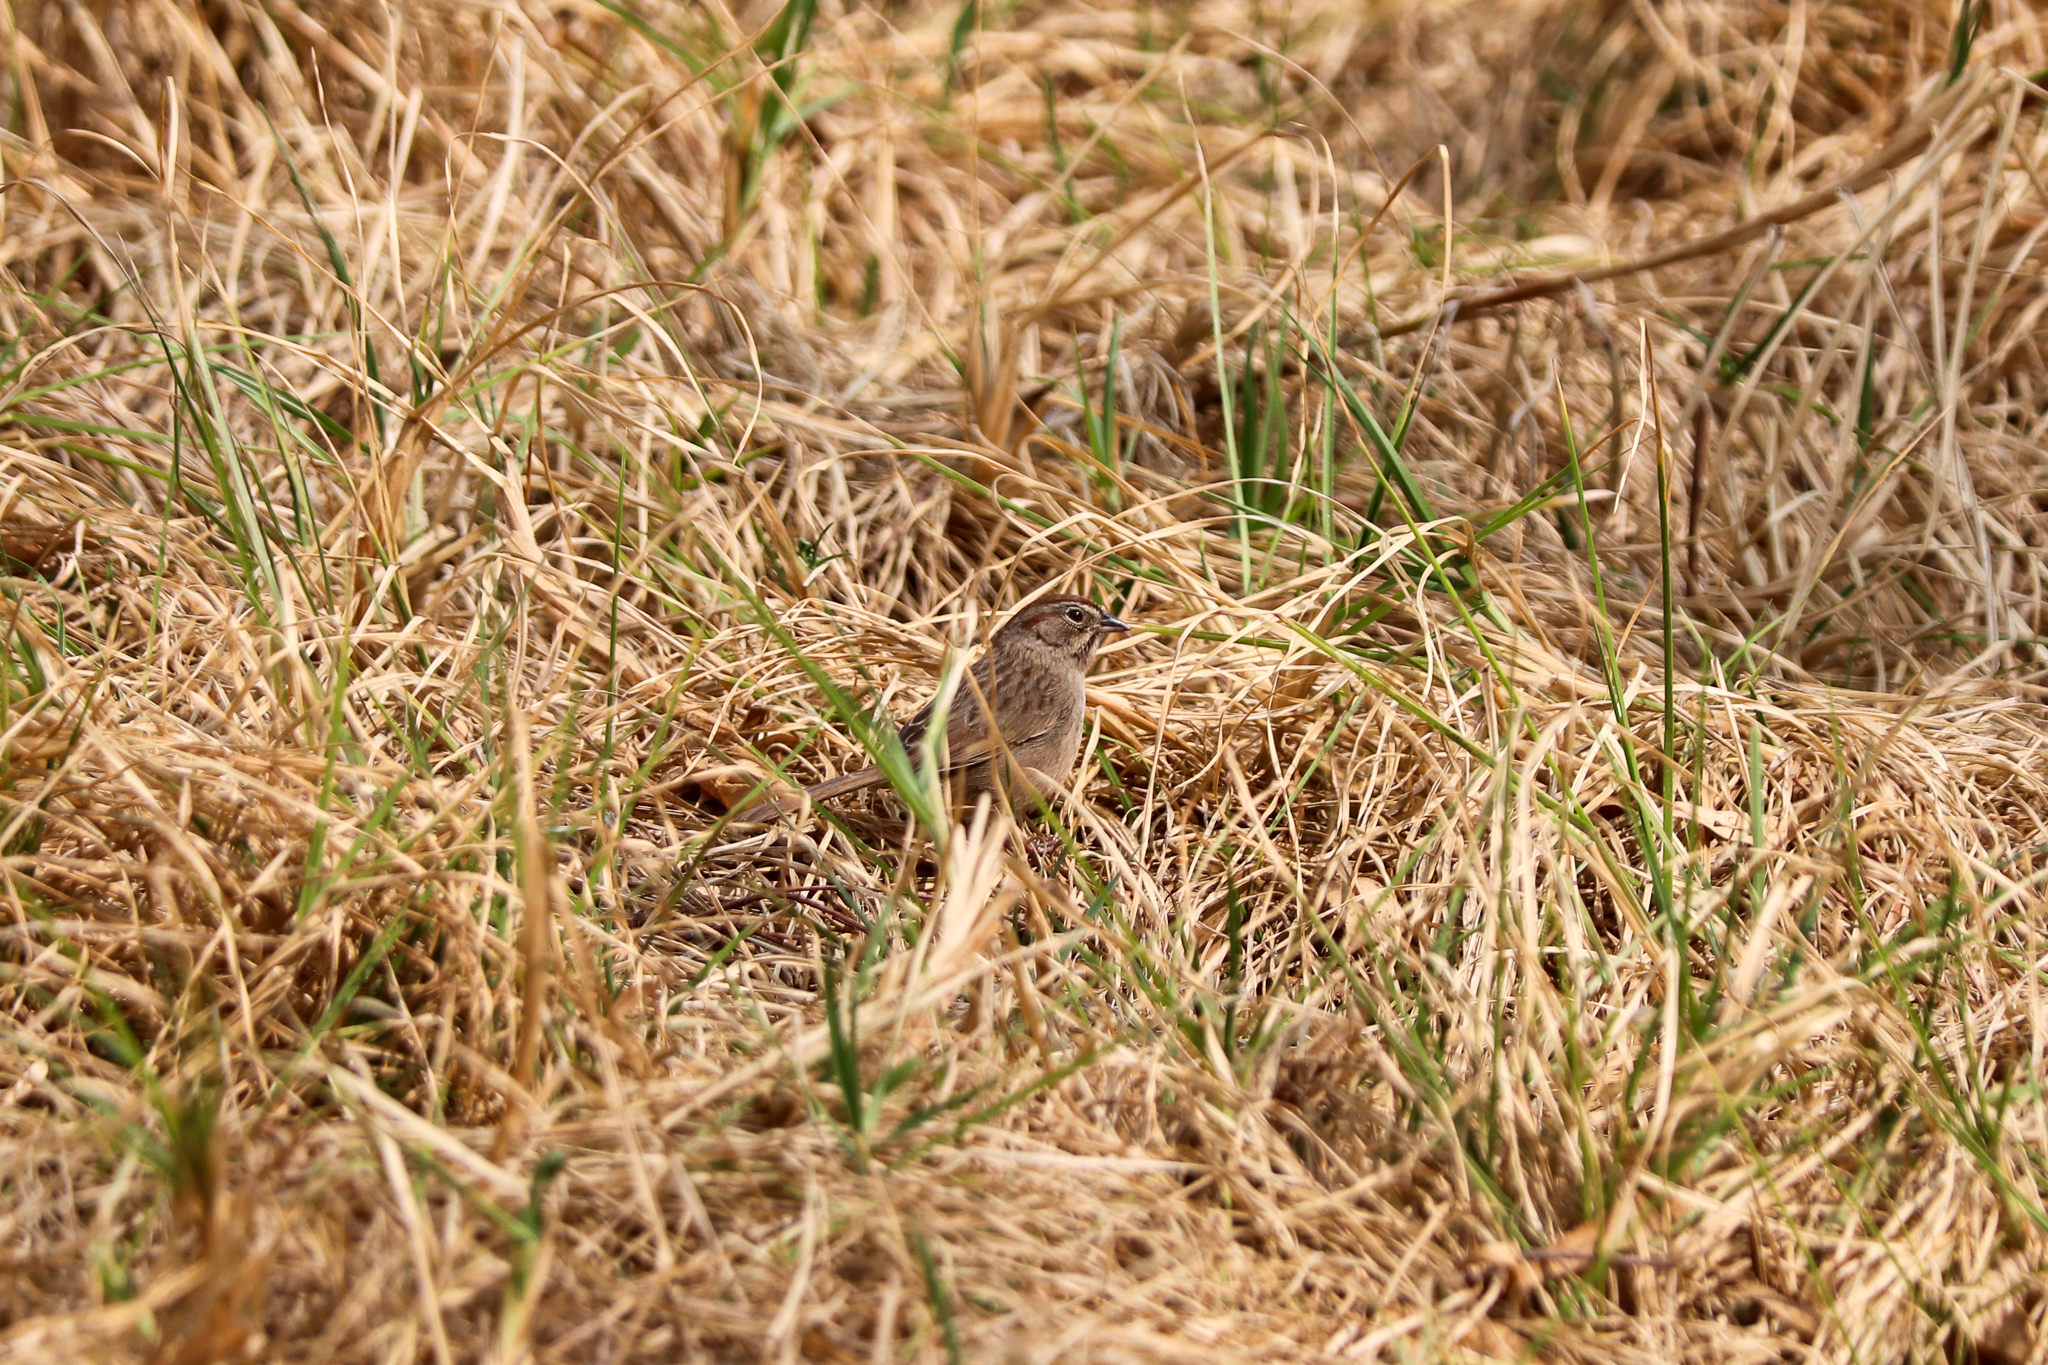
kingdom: Animalia
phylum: Chordata
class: Aves
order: Passeriformes
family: Passerellidae
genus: Aimophila
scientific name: Aimophila ruficeps
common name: Rufous-crowned sparrow
